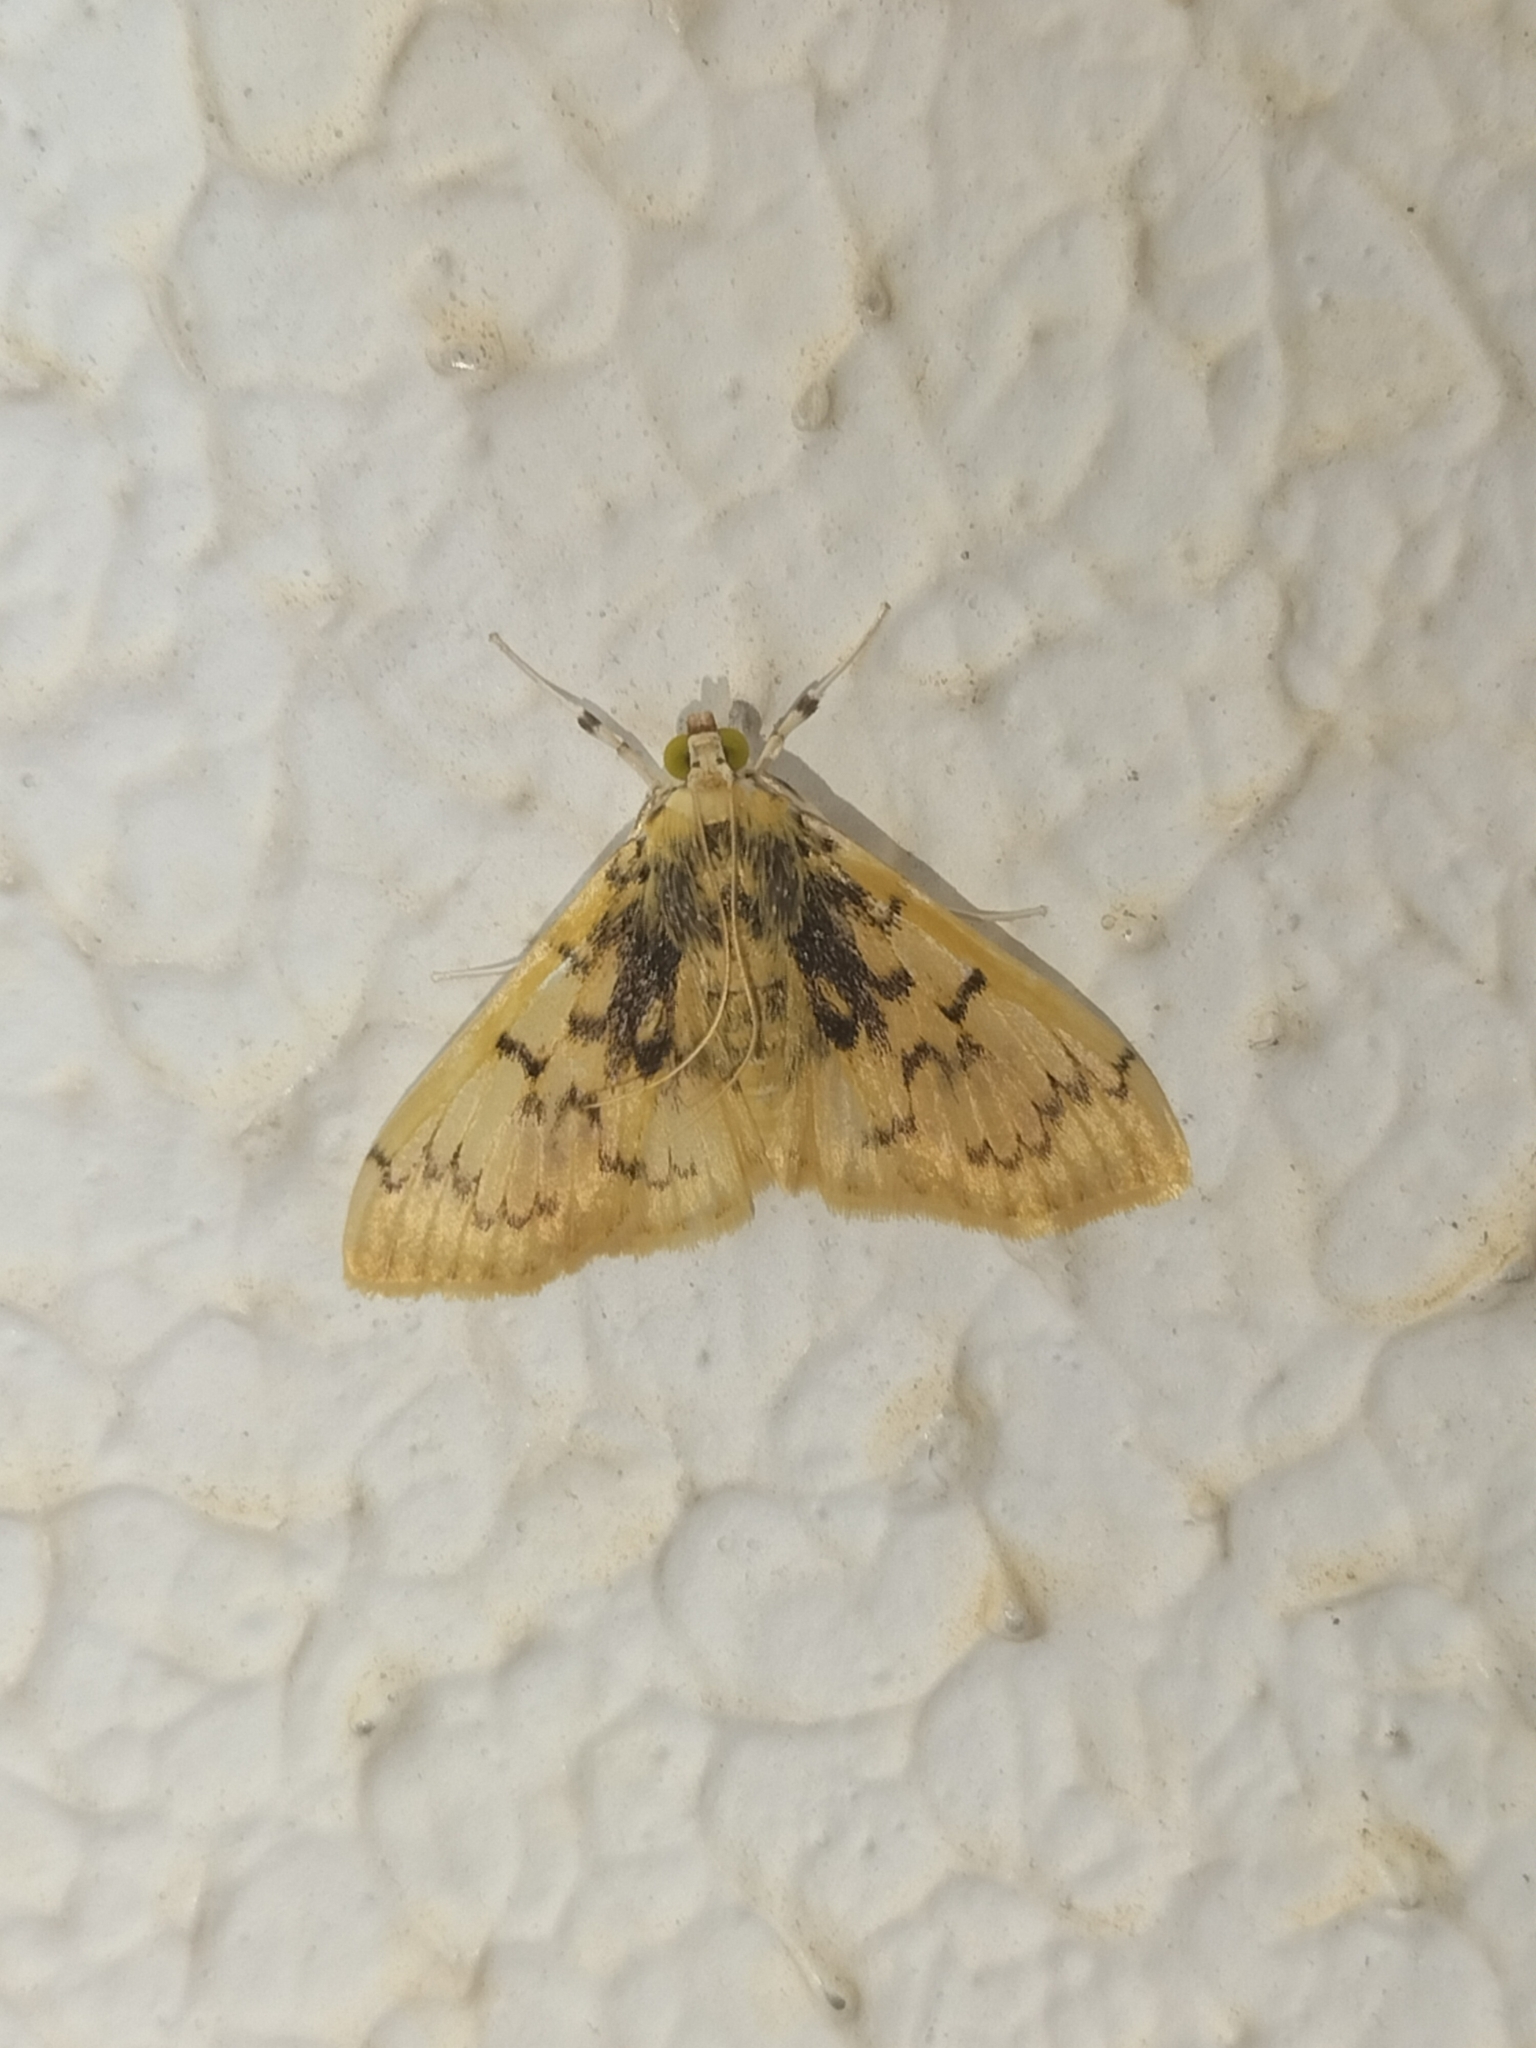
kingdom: Animalia
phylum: Arthropoda
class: Insecta
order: Lepidoptera
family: Crambidae
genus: Syllepte
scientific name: Syllepte polydonta
